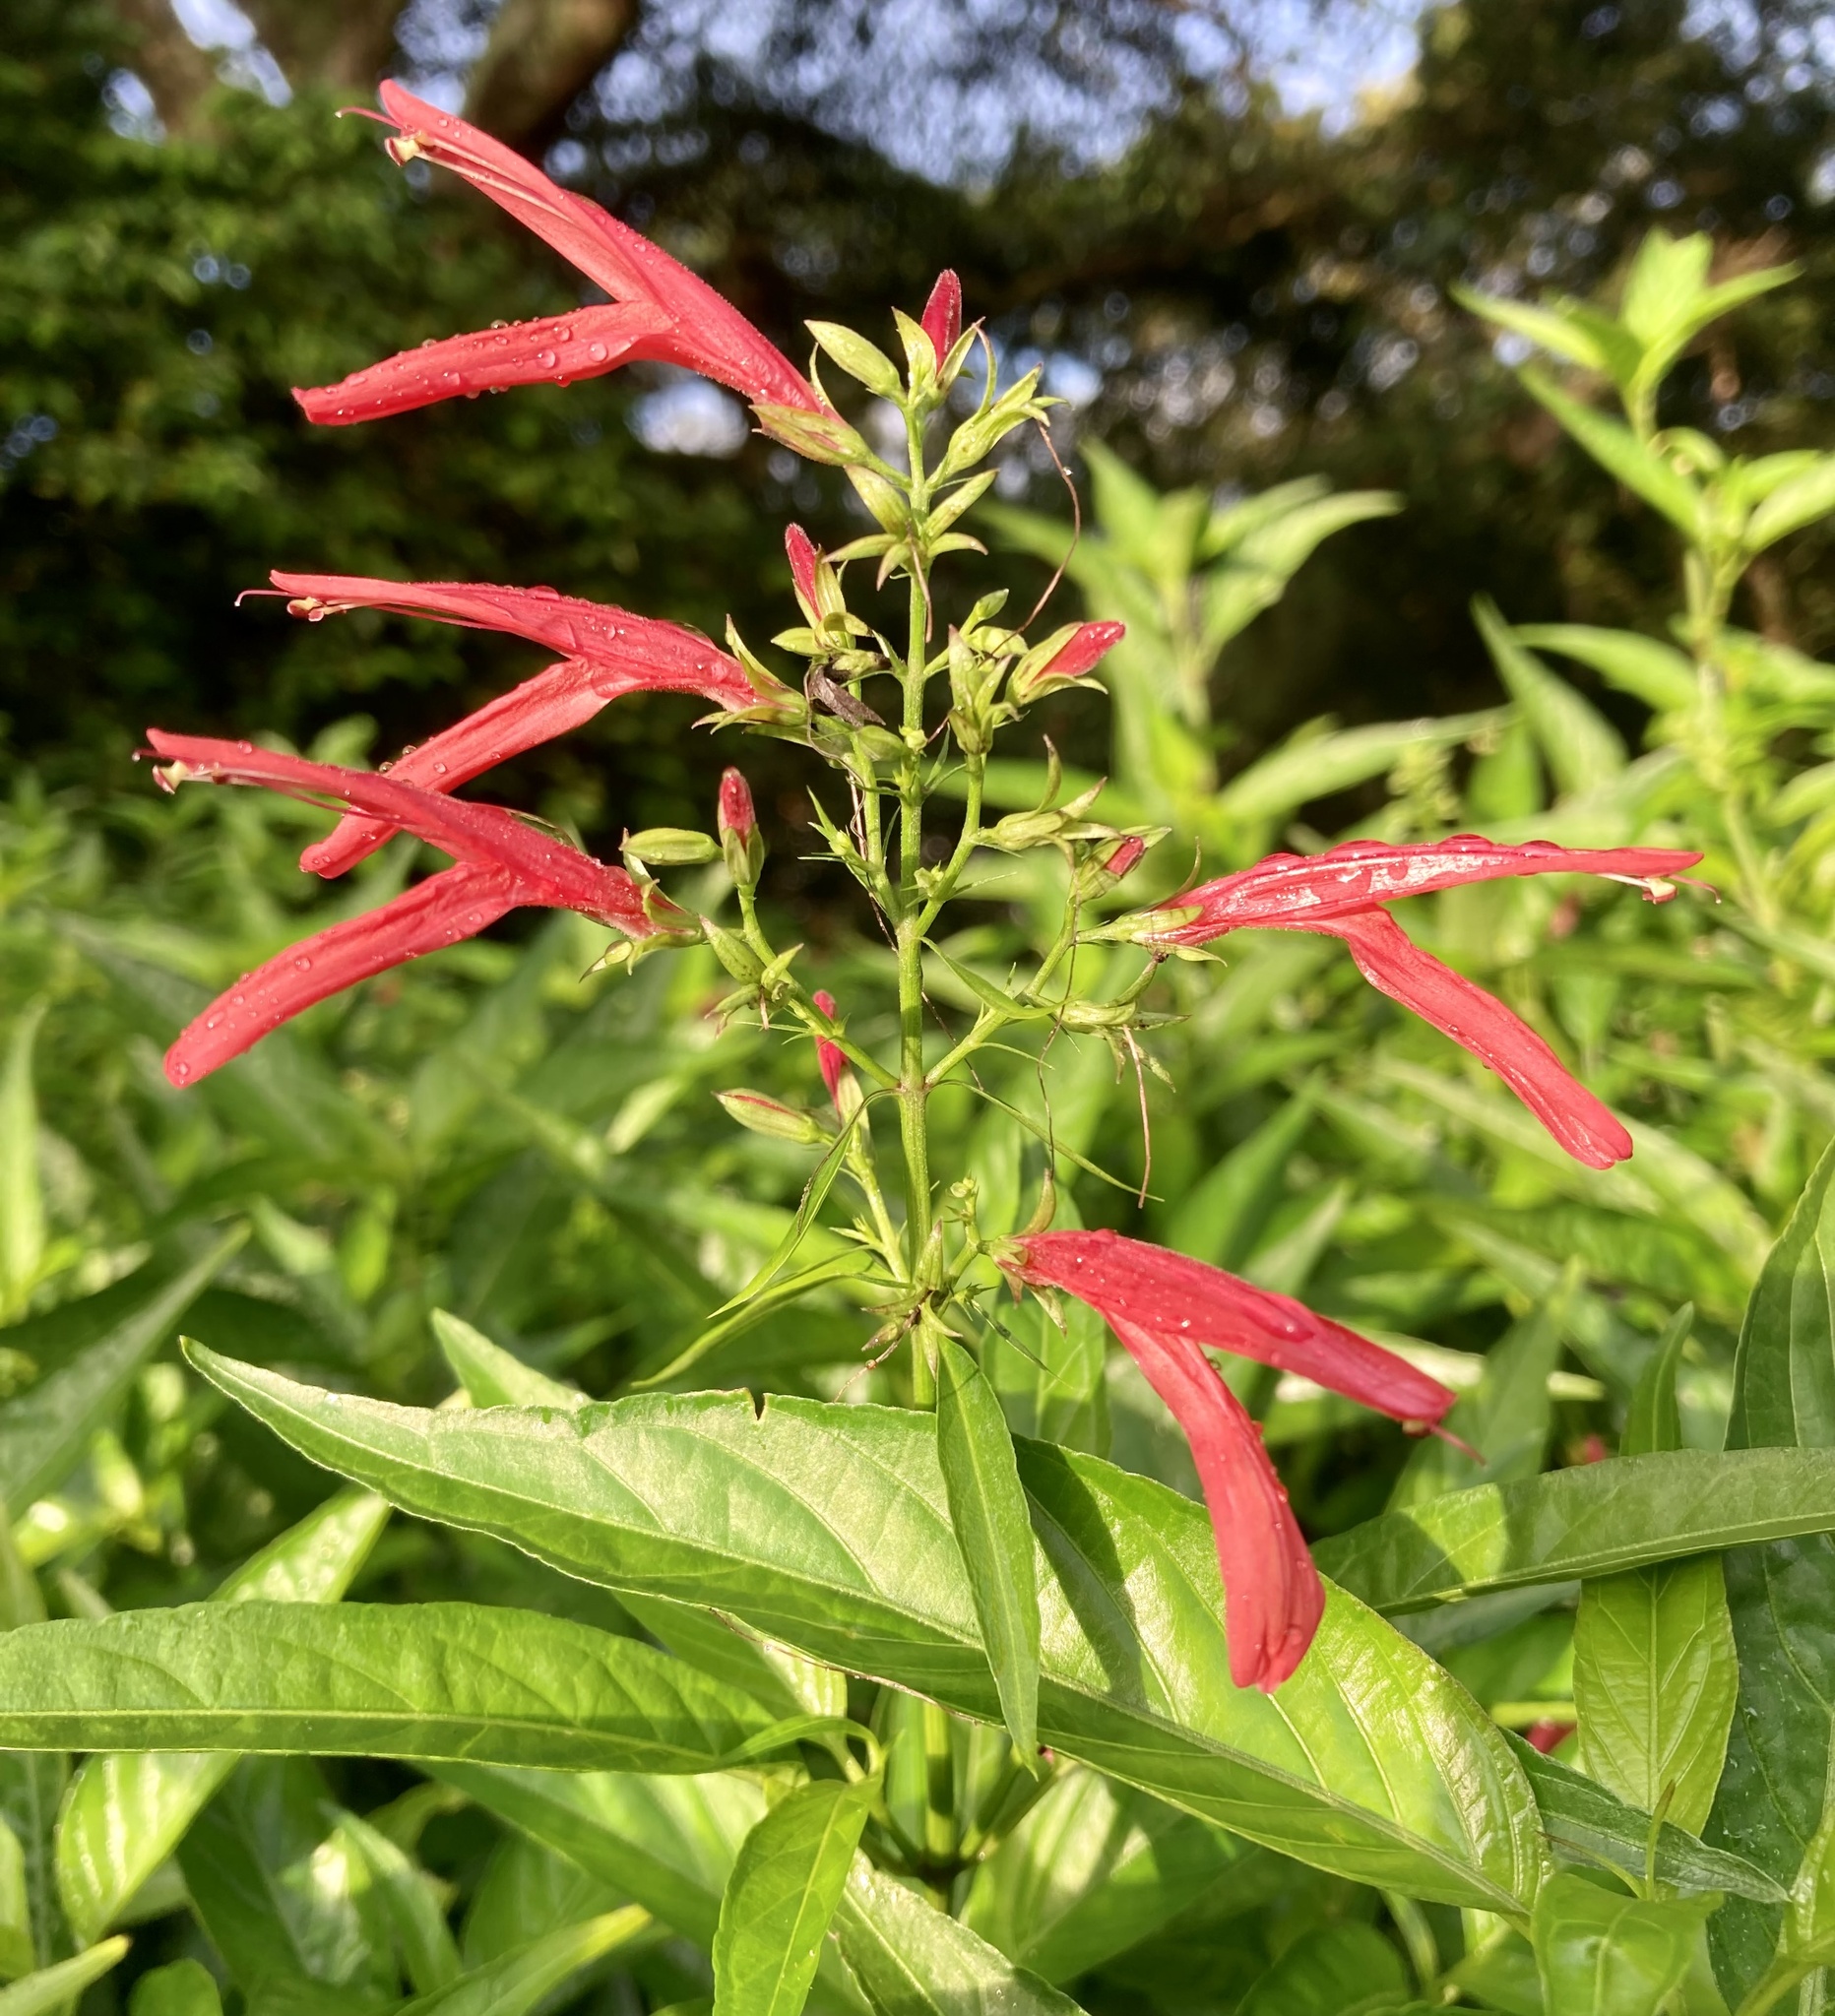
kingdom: Plantae
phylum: Tracheophyta
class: Magnoliopsida
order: Lamiales
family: Acanthaceae
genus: Dianthera
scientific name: Dianthera secunda
